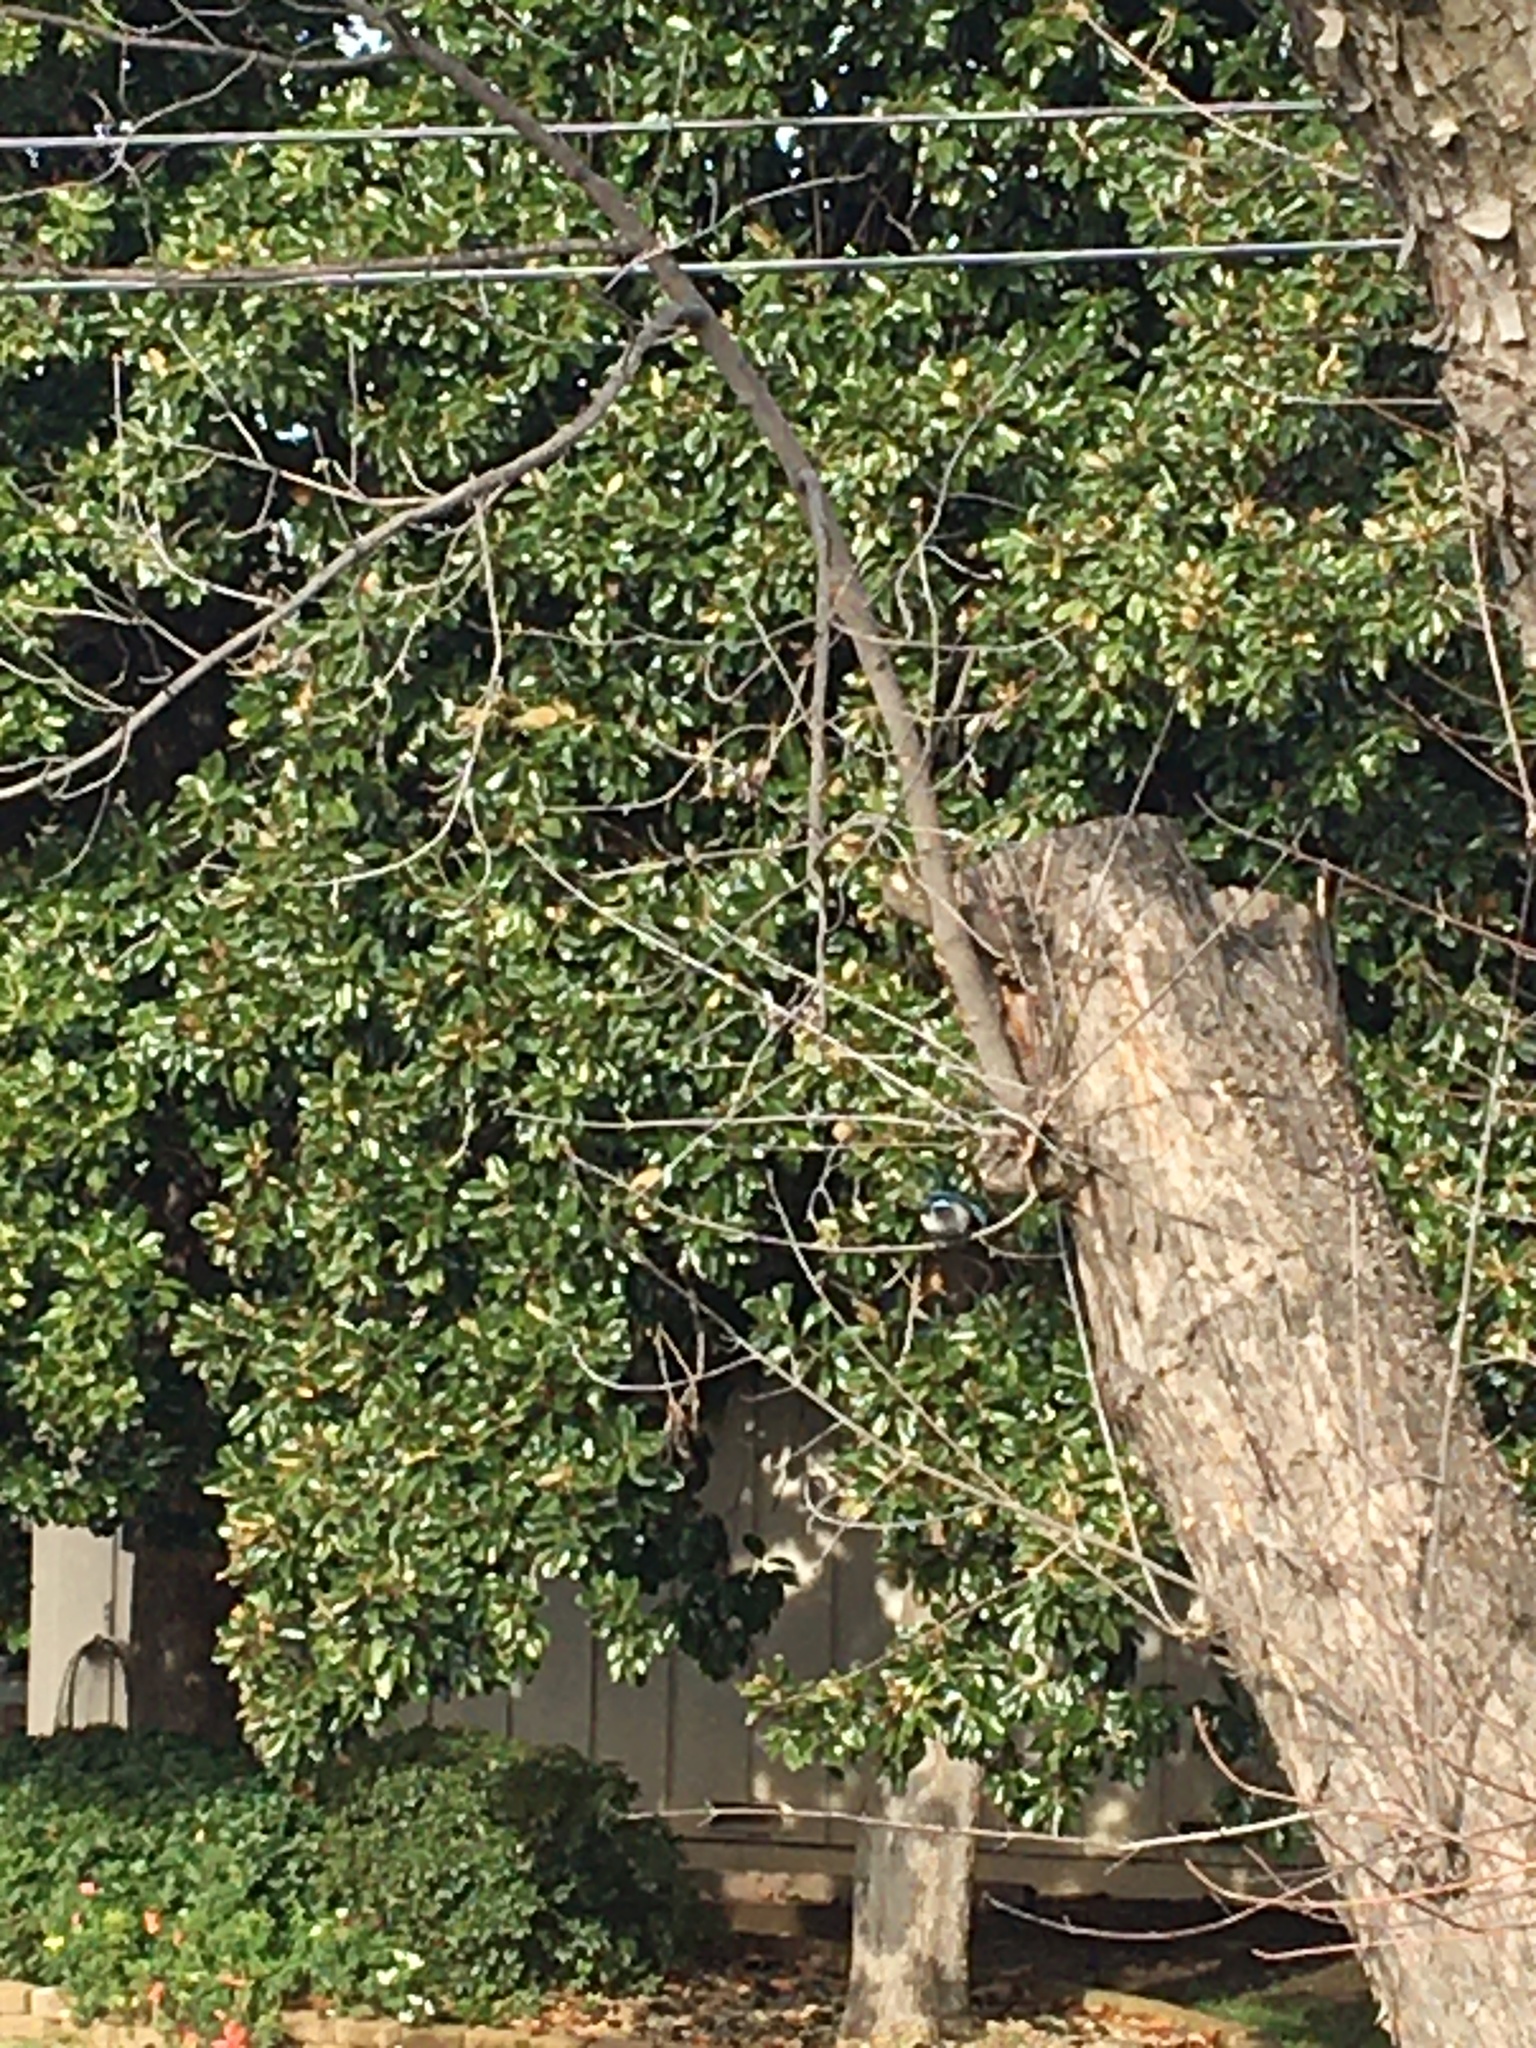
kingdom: Animalia
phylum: Chordata
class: Aves
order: Passeriformes
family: Corvidae
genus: Aphelocoma
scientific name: Aphelocoma californica
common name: California scrub-jay
